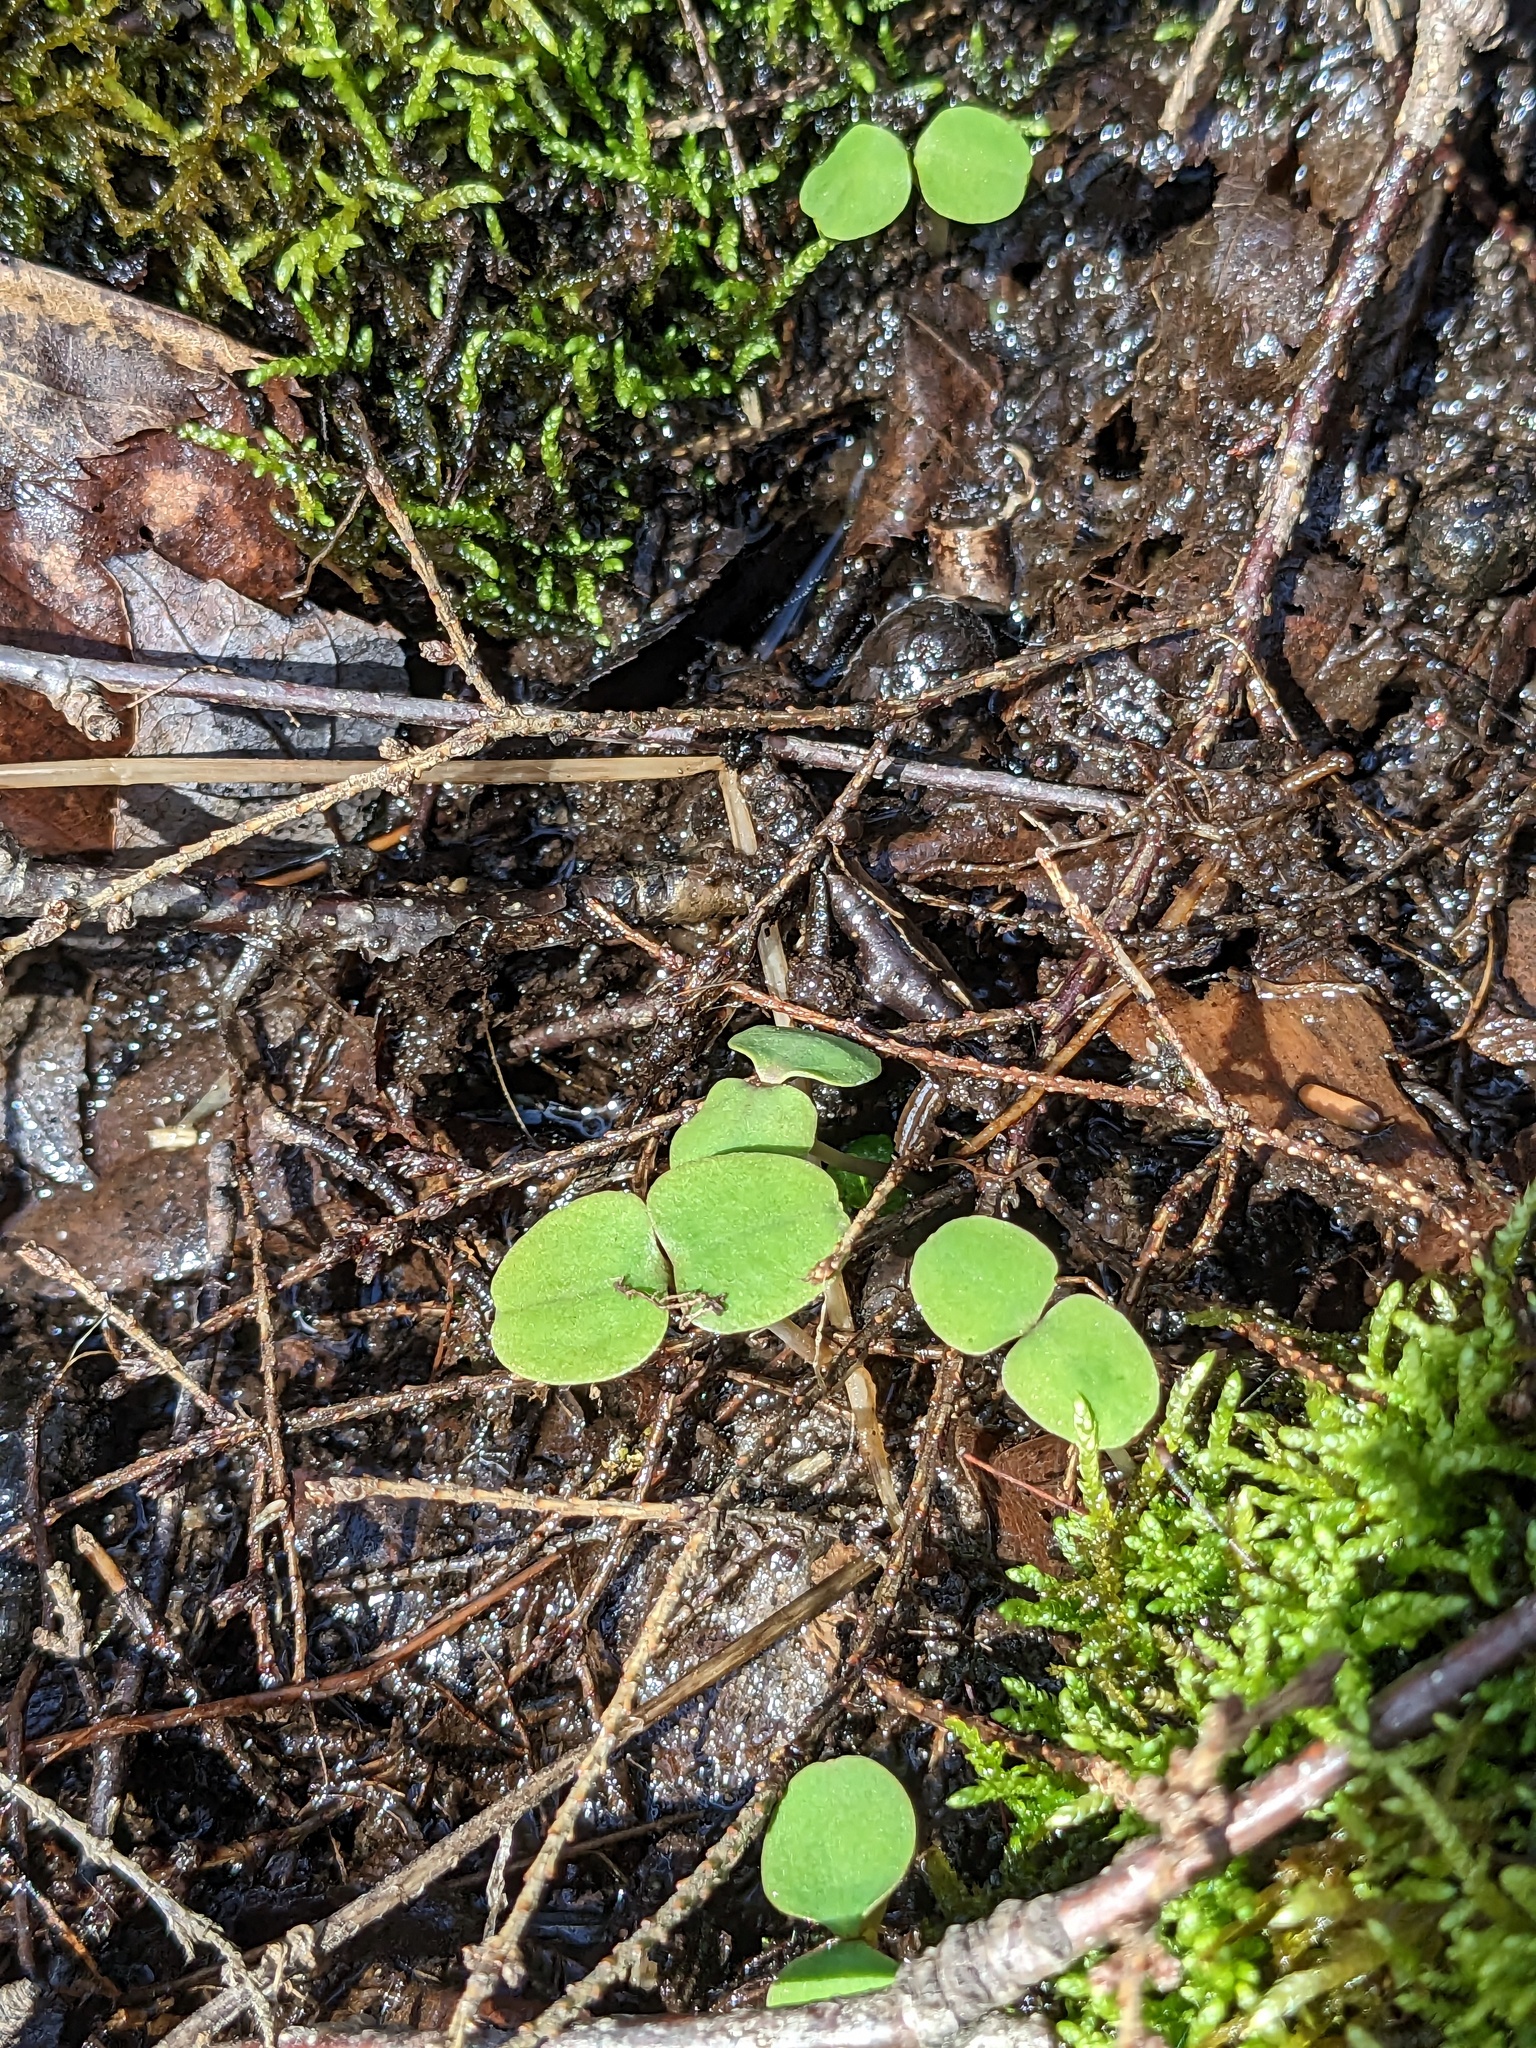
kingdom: Plantae
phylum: Tracheophyta
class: Magnoliopsida
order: Ericales
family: Balsaminaceae
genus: Impatiens
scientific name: Impatiens capensis
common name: Orange balsam
